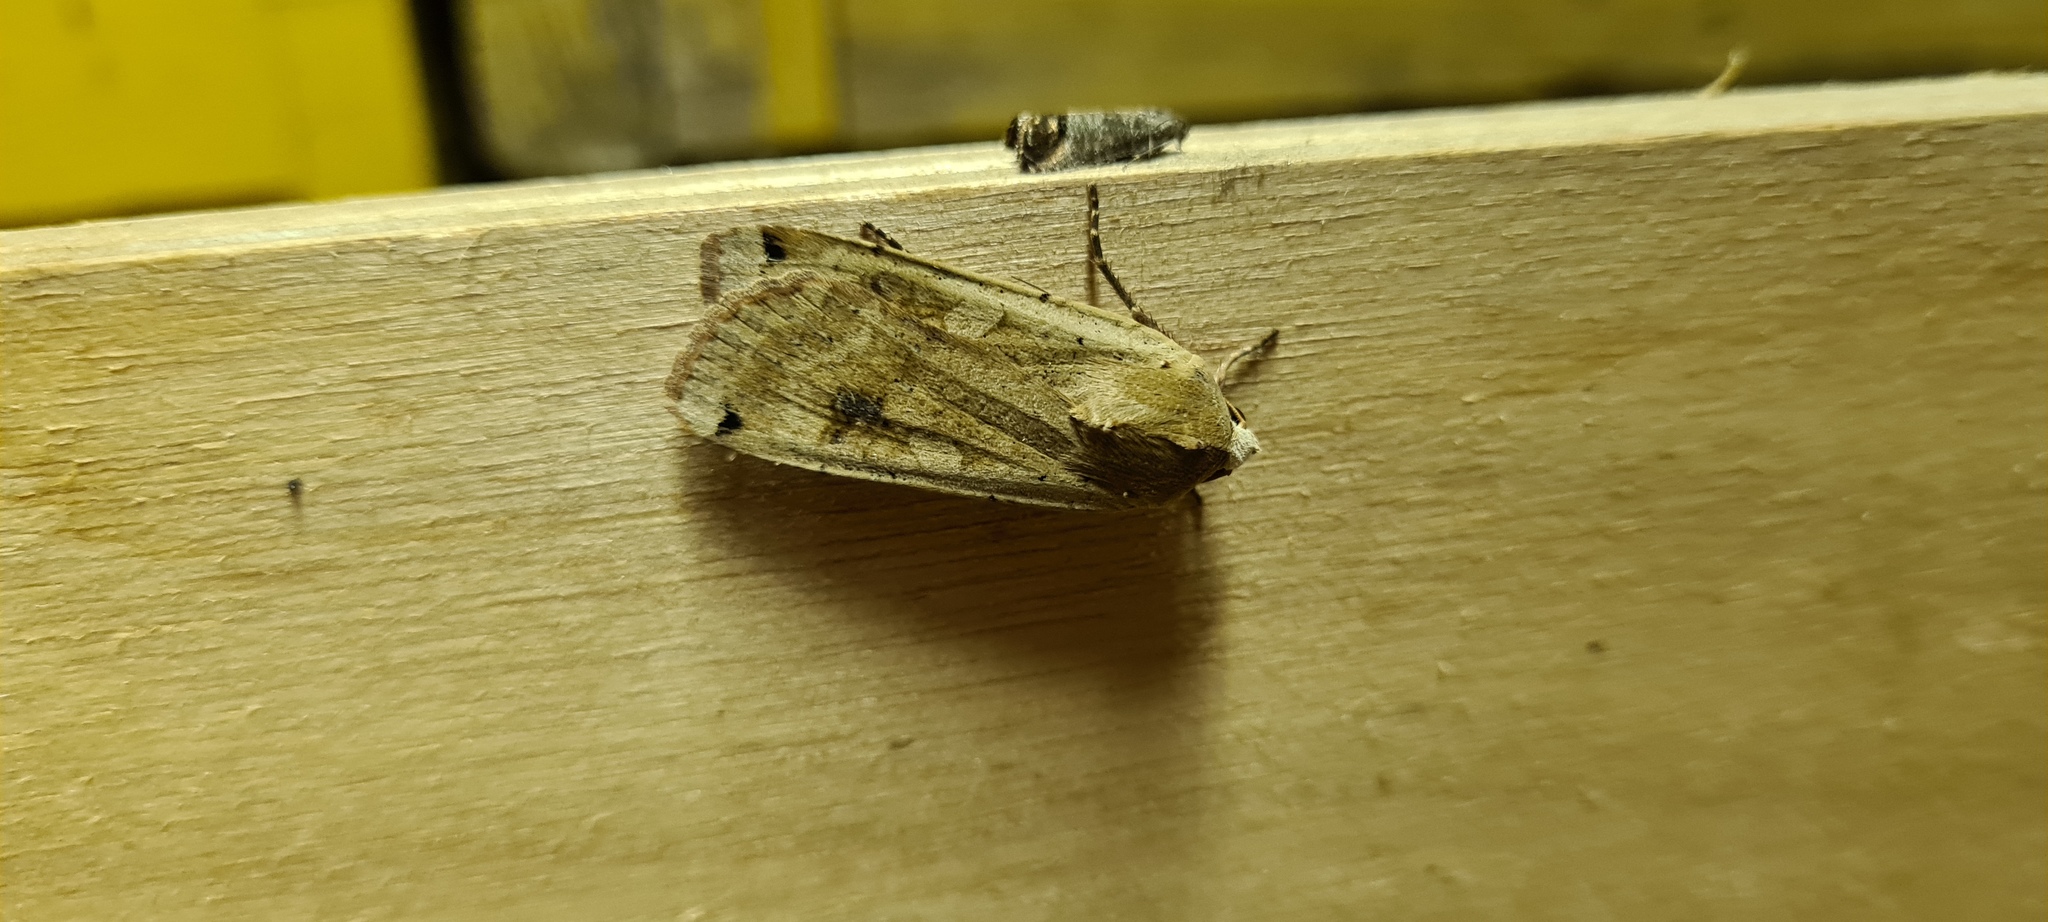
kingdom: Animalia
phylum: Arthropoda
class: Insecta
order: Lepidoptera
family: Noctuidae
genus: Noctua
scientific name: Noctua pronuba
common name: Large yellow underwing
